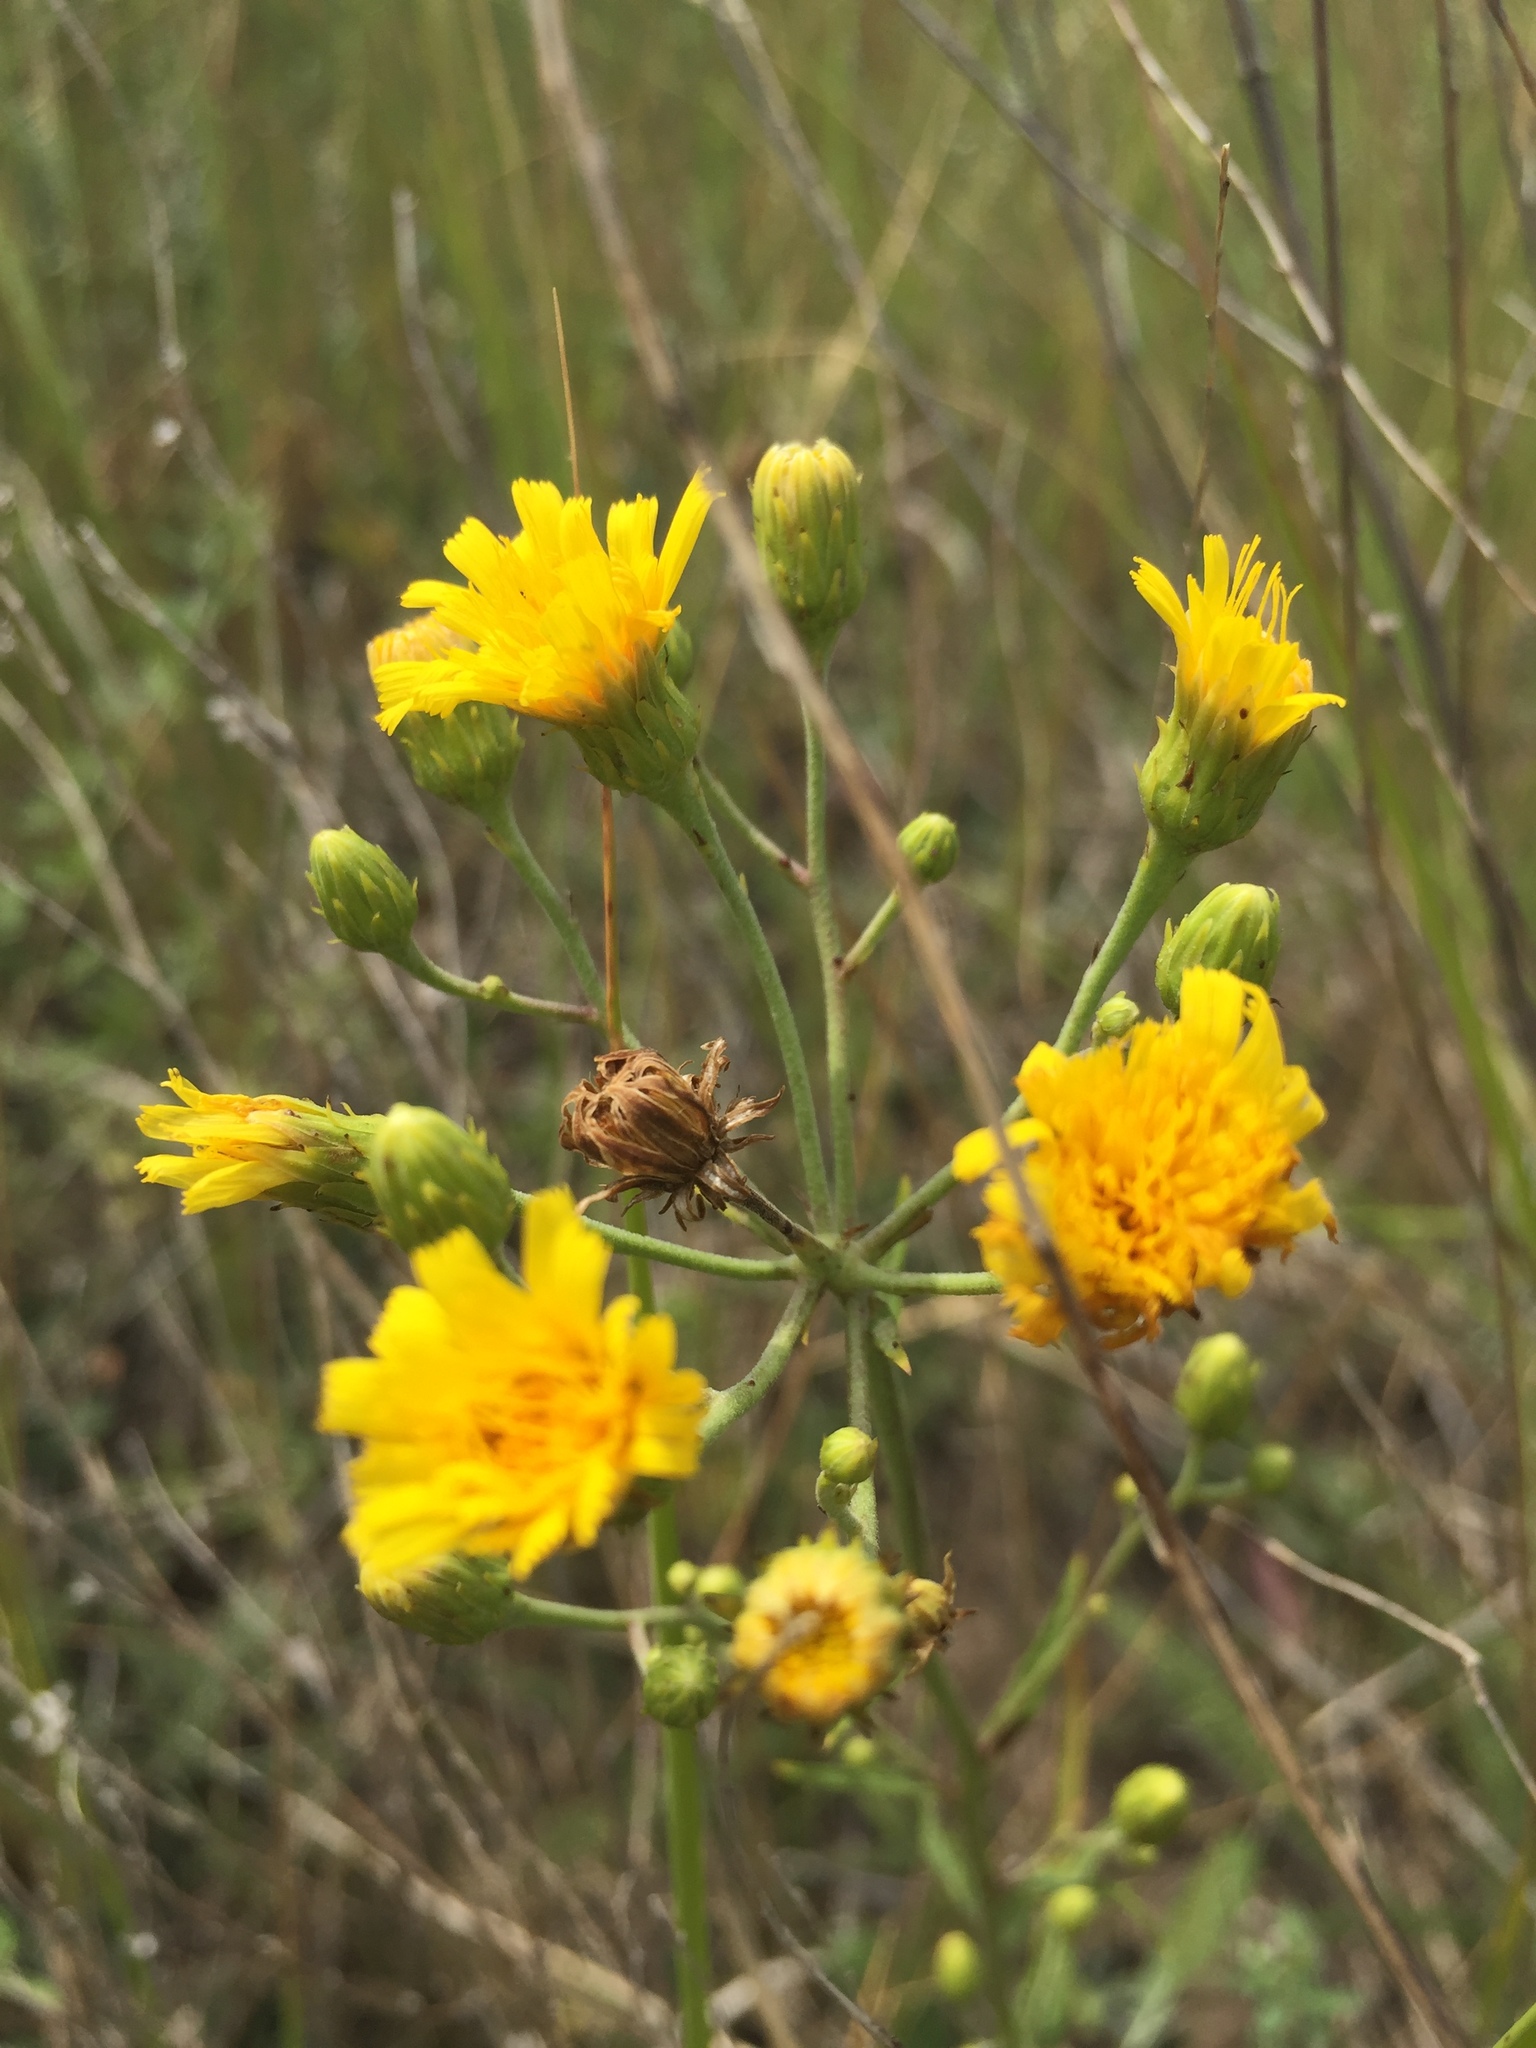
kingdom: Plantae
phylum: Tracheophyta
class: Magnoliopsida
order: Asterales
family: Asteraceae
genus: Hieracium
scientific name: Hieracium umbellatum
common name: Northern hawkweed
